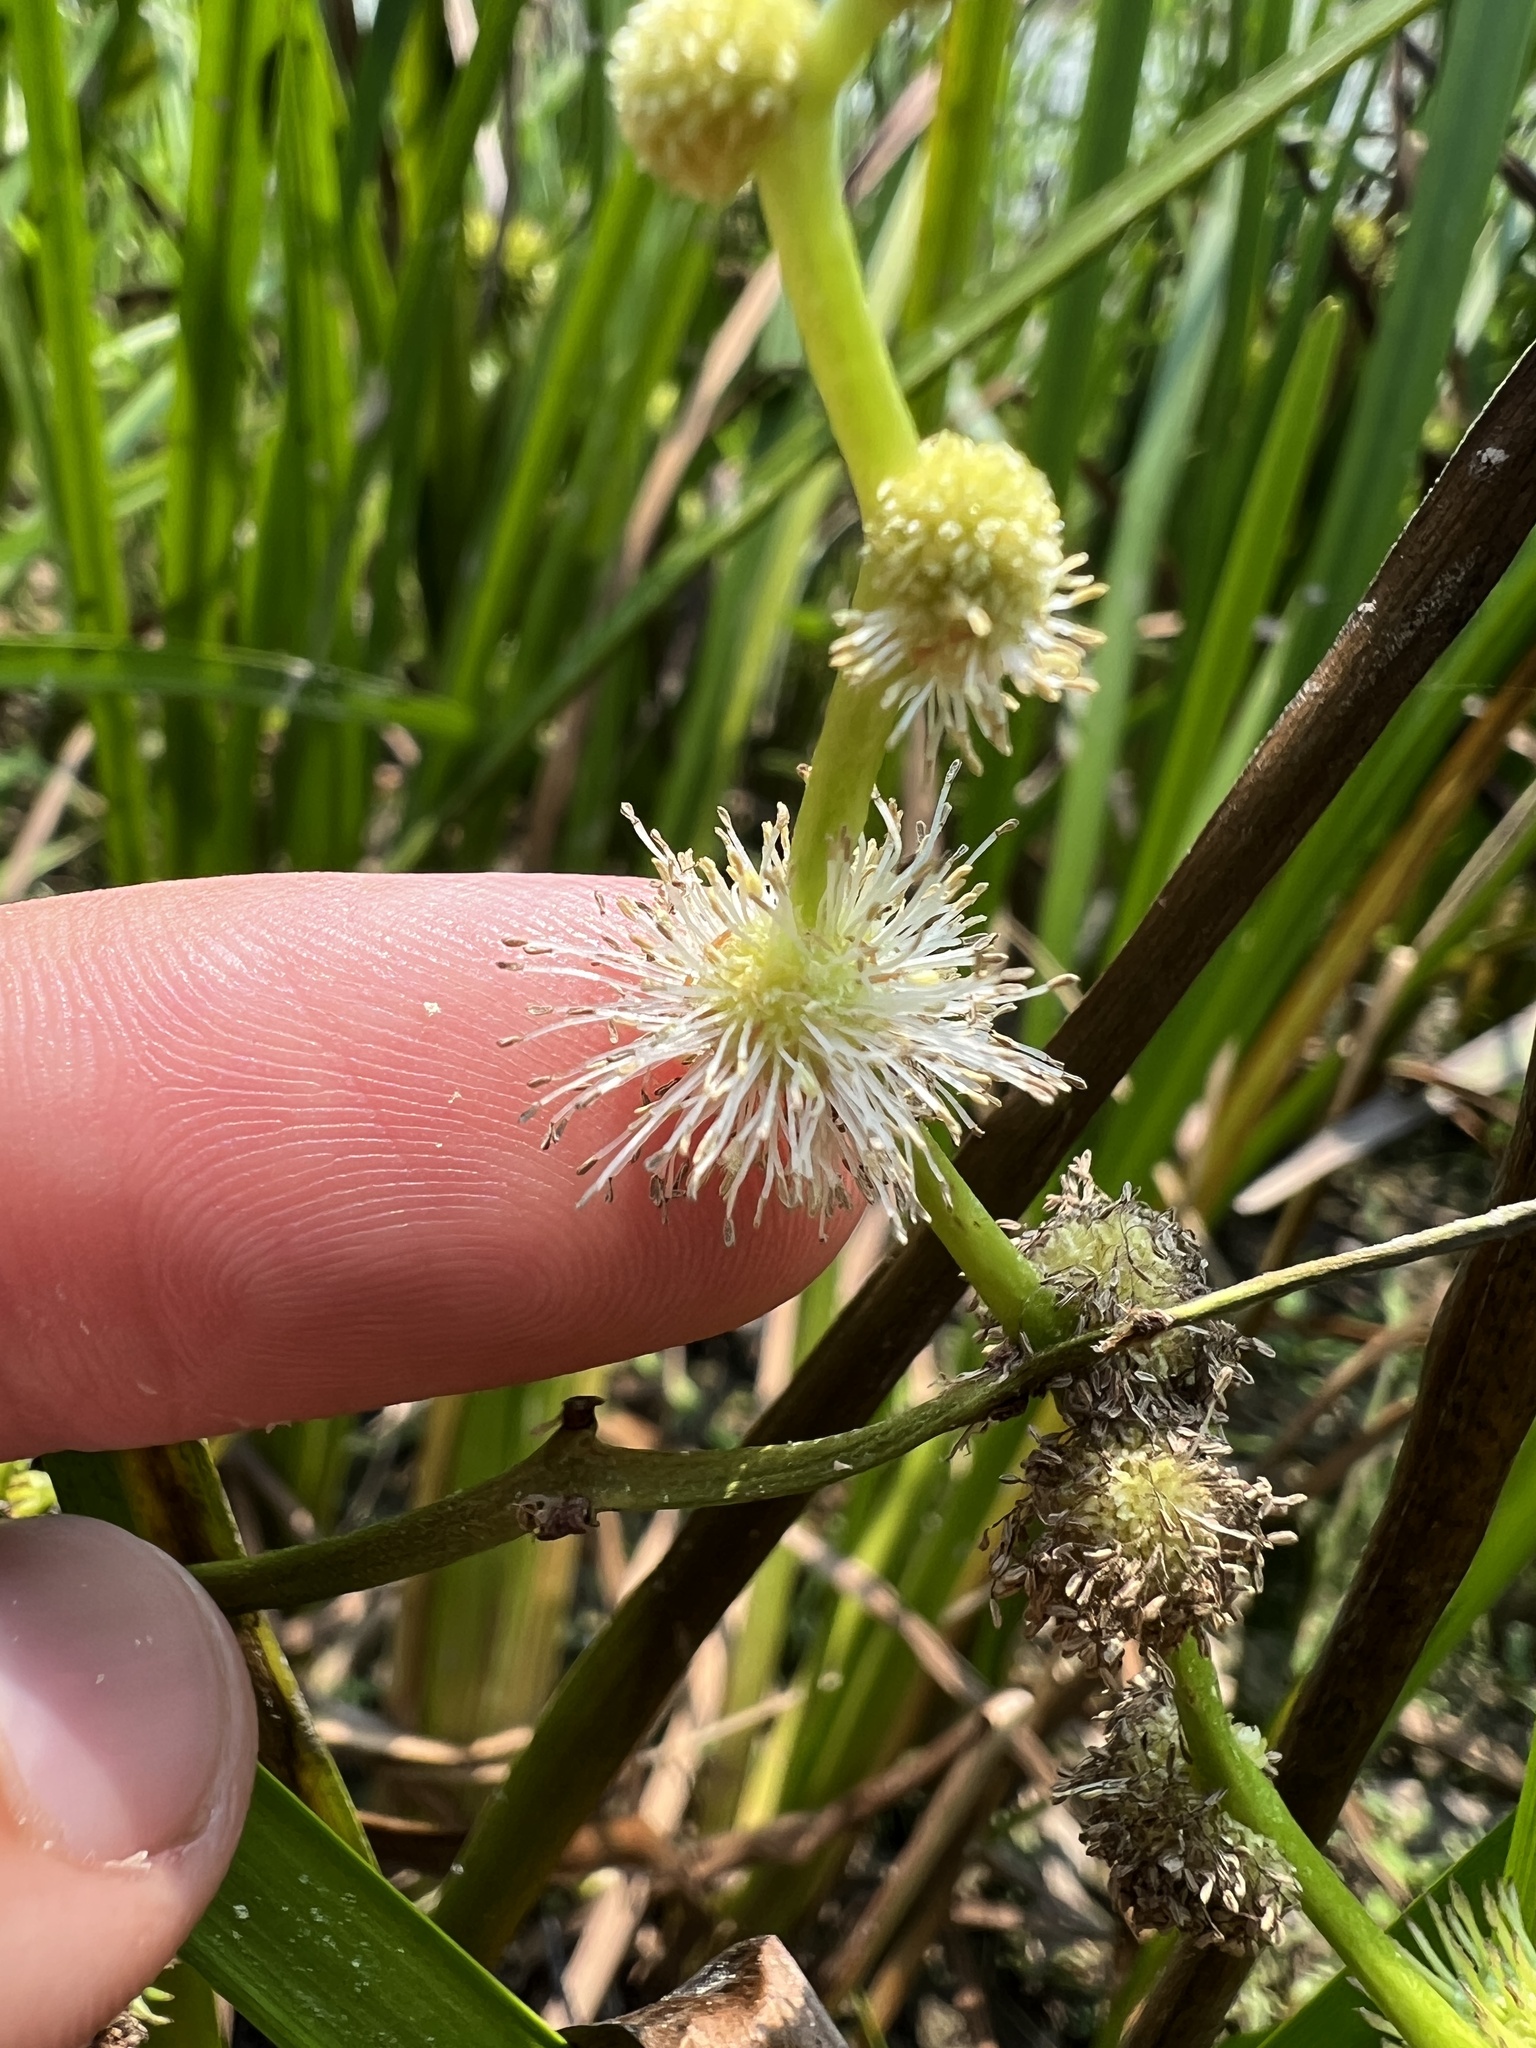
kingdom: Plantae
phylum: Tracheophyta
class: Liliopsida
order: Poales
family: Typhaceae
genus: Sparganium
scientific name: Sparganium androcladum
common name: Branched burreed
